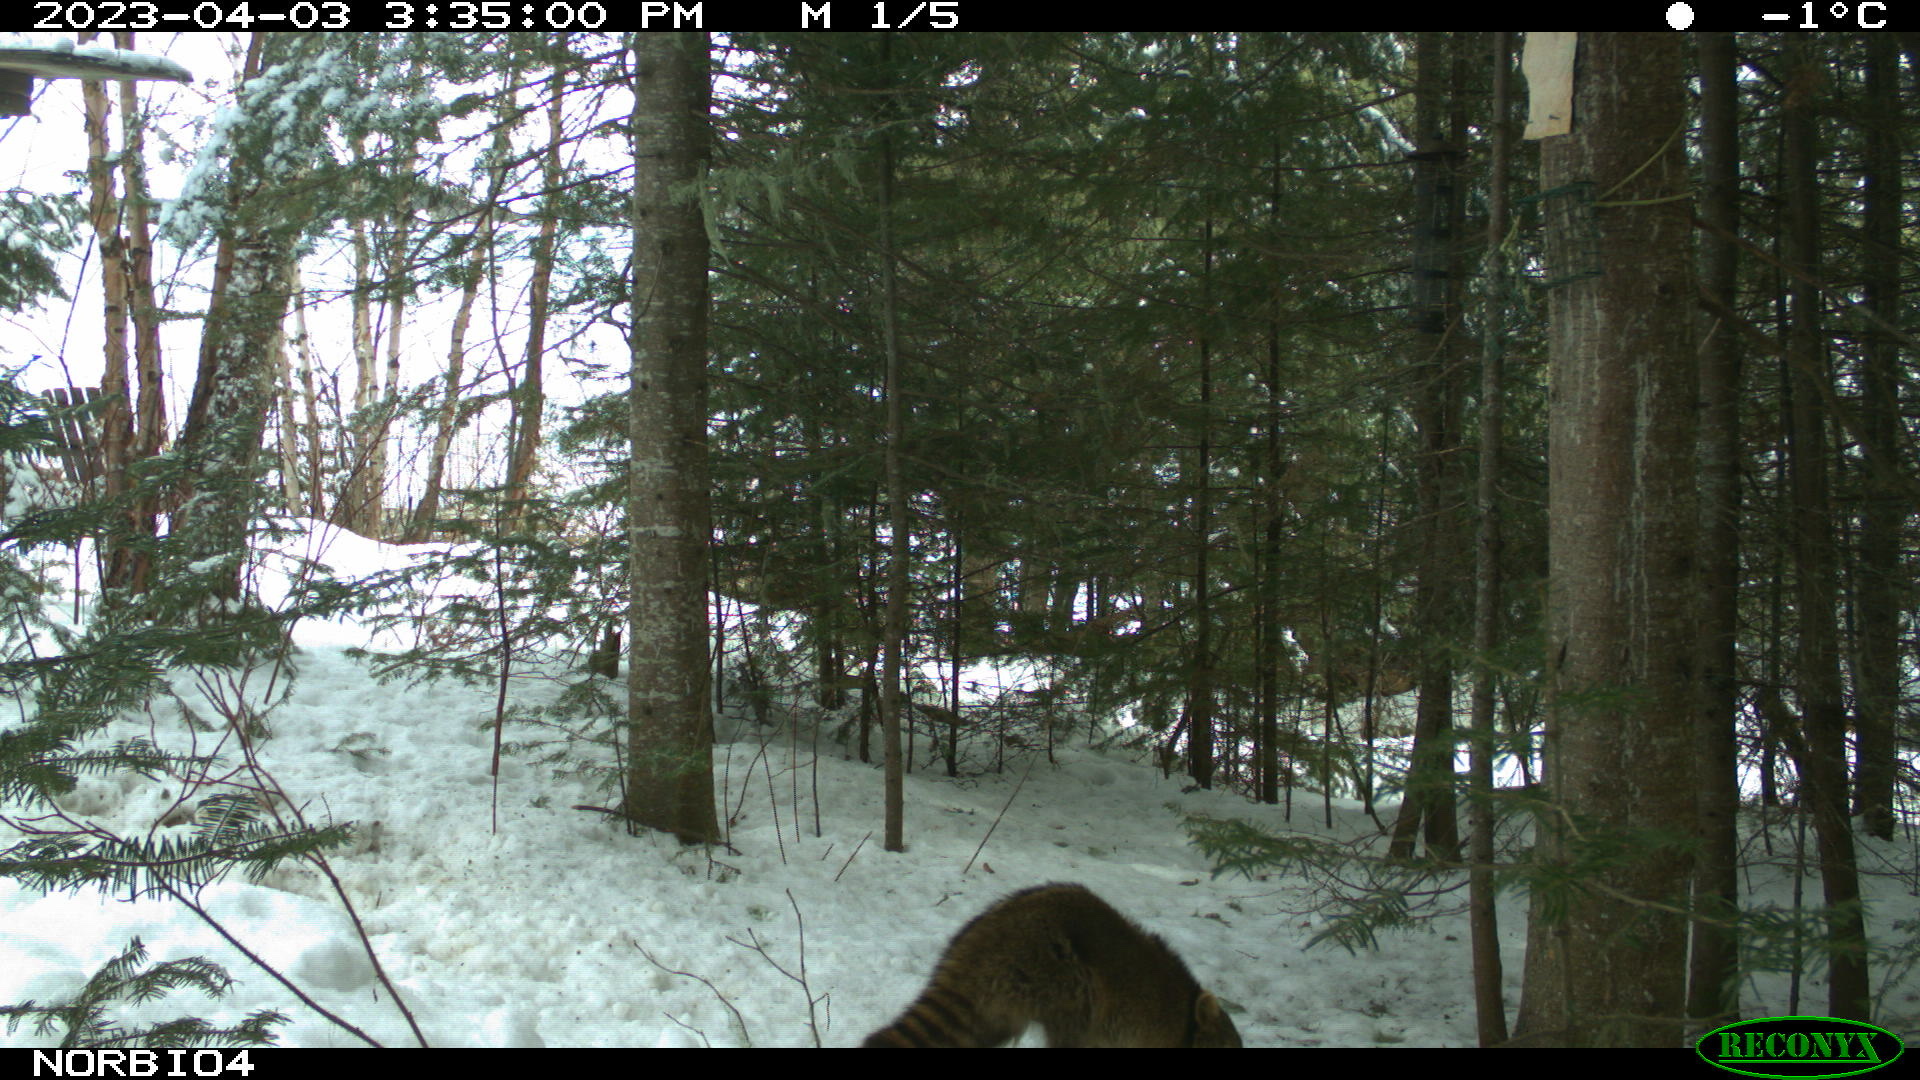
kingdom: Animalia
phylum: Chordata
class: Mammalia
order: Carnivora
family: Procyonidae
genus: Procyon
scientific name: Procyon lotor
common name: Raccoon
